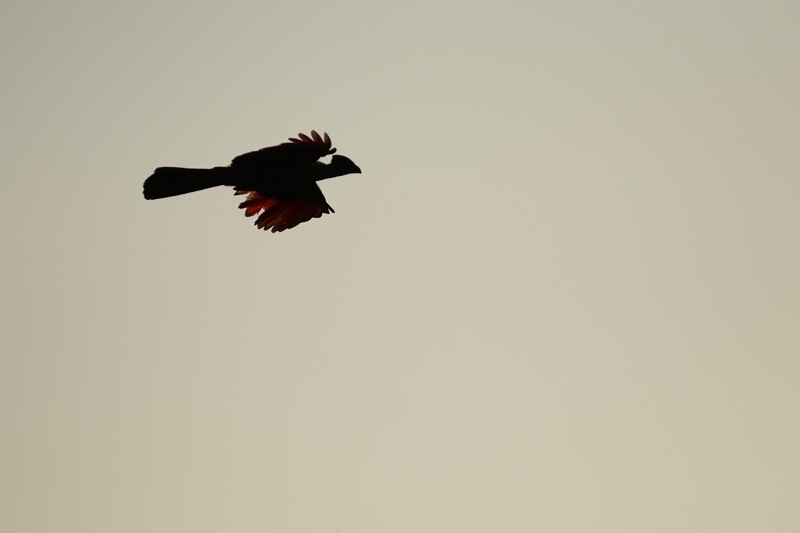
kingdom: Animalia
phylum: Chordata
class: Aves
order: Musophagiformes
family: Musophagidae
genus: Tauraco
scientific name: Tauraco porphyreolophus
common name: Purple-crested turaco
